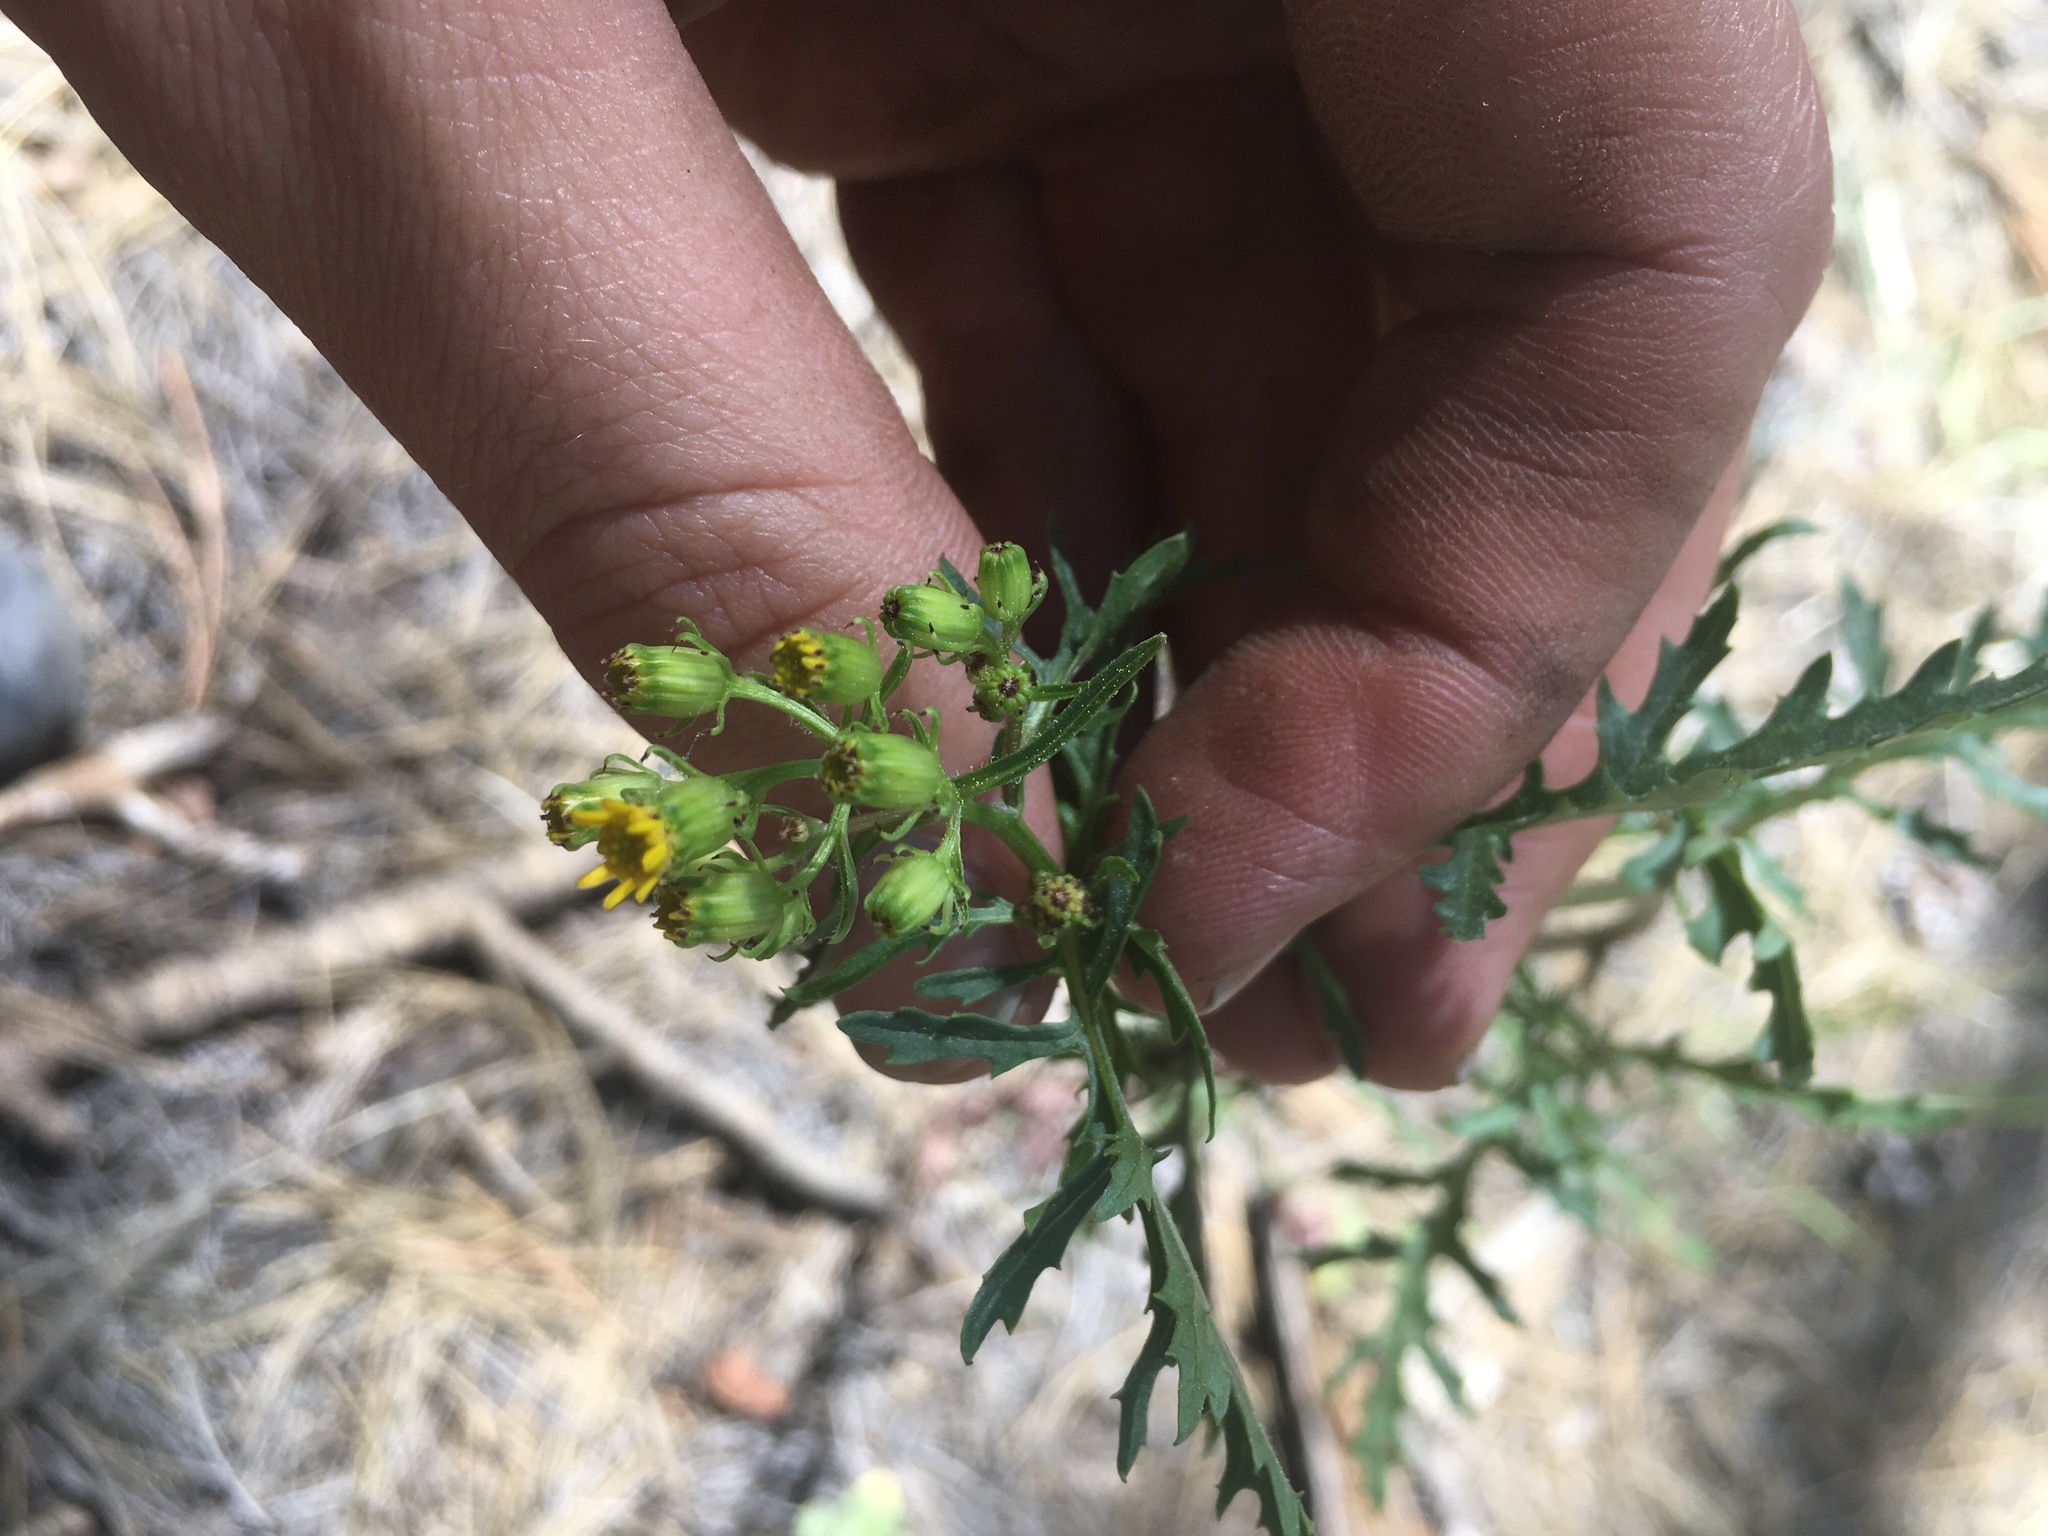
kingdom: Plantae
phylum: Tracheophyta
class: Magnoliopsida
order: Asterales
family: Asteraceae
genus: Senecio
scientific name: Senecio eremophilus
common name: Desert ragwort
